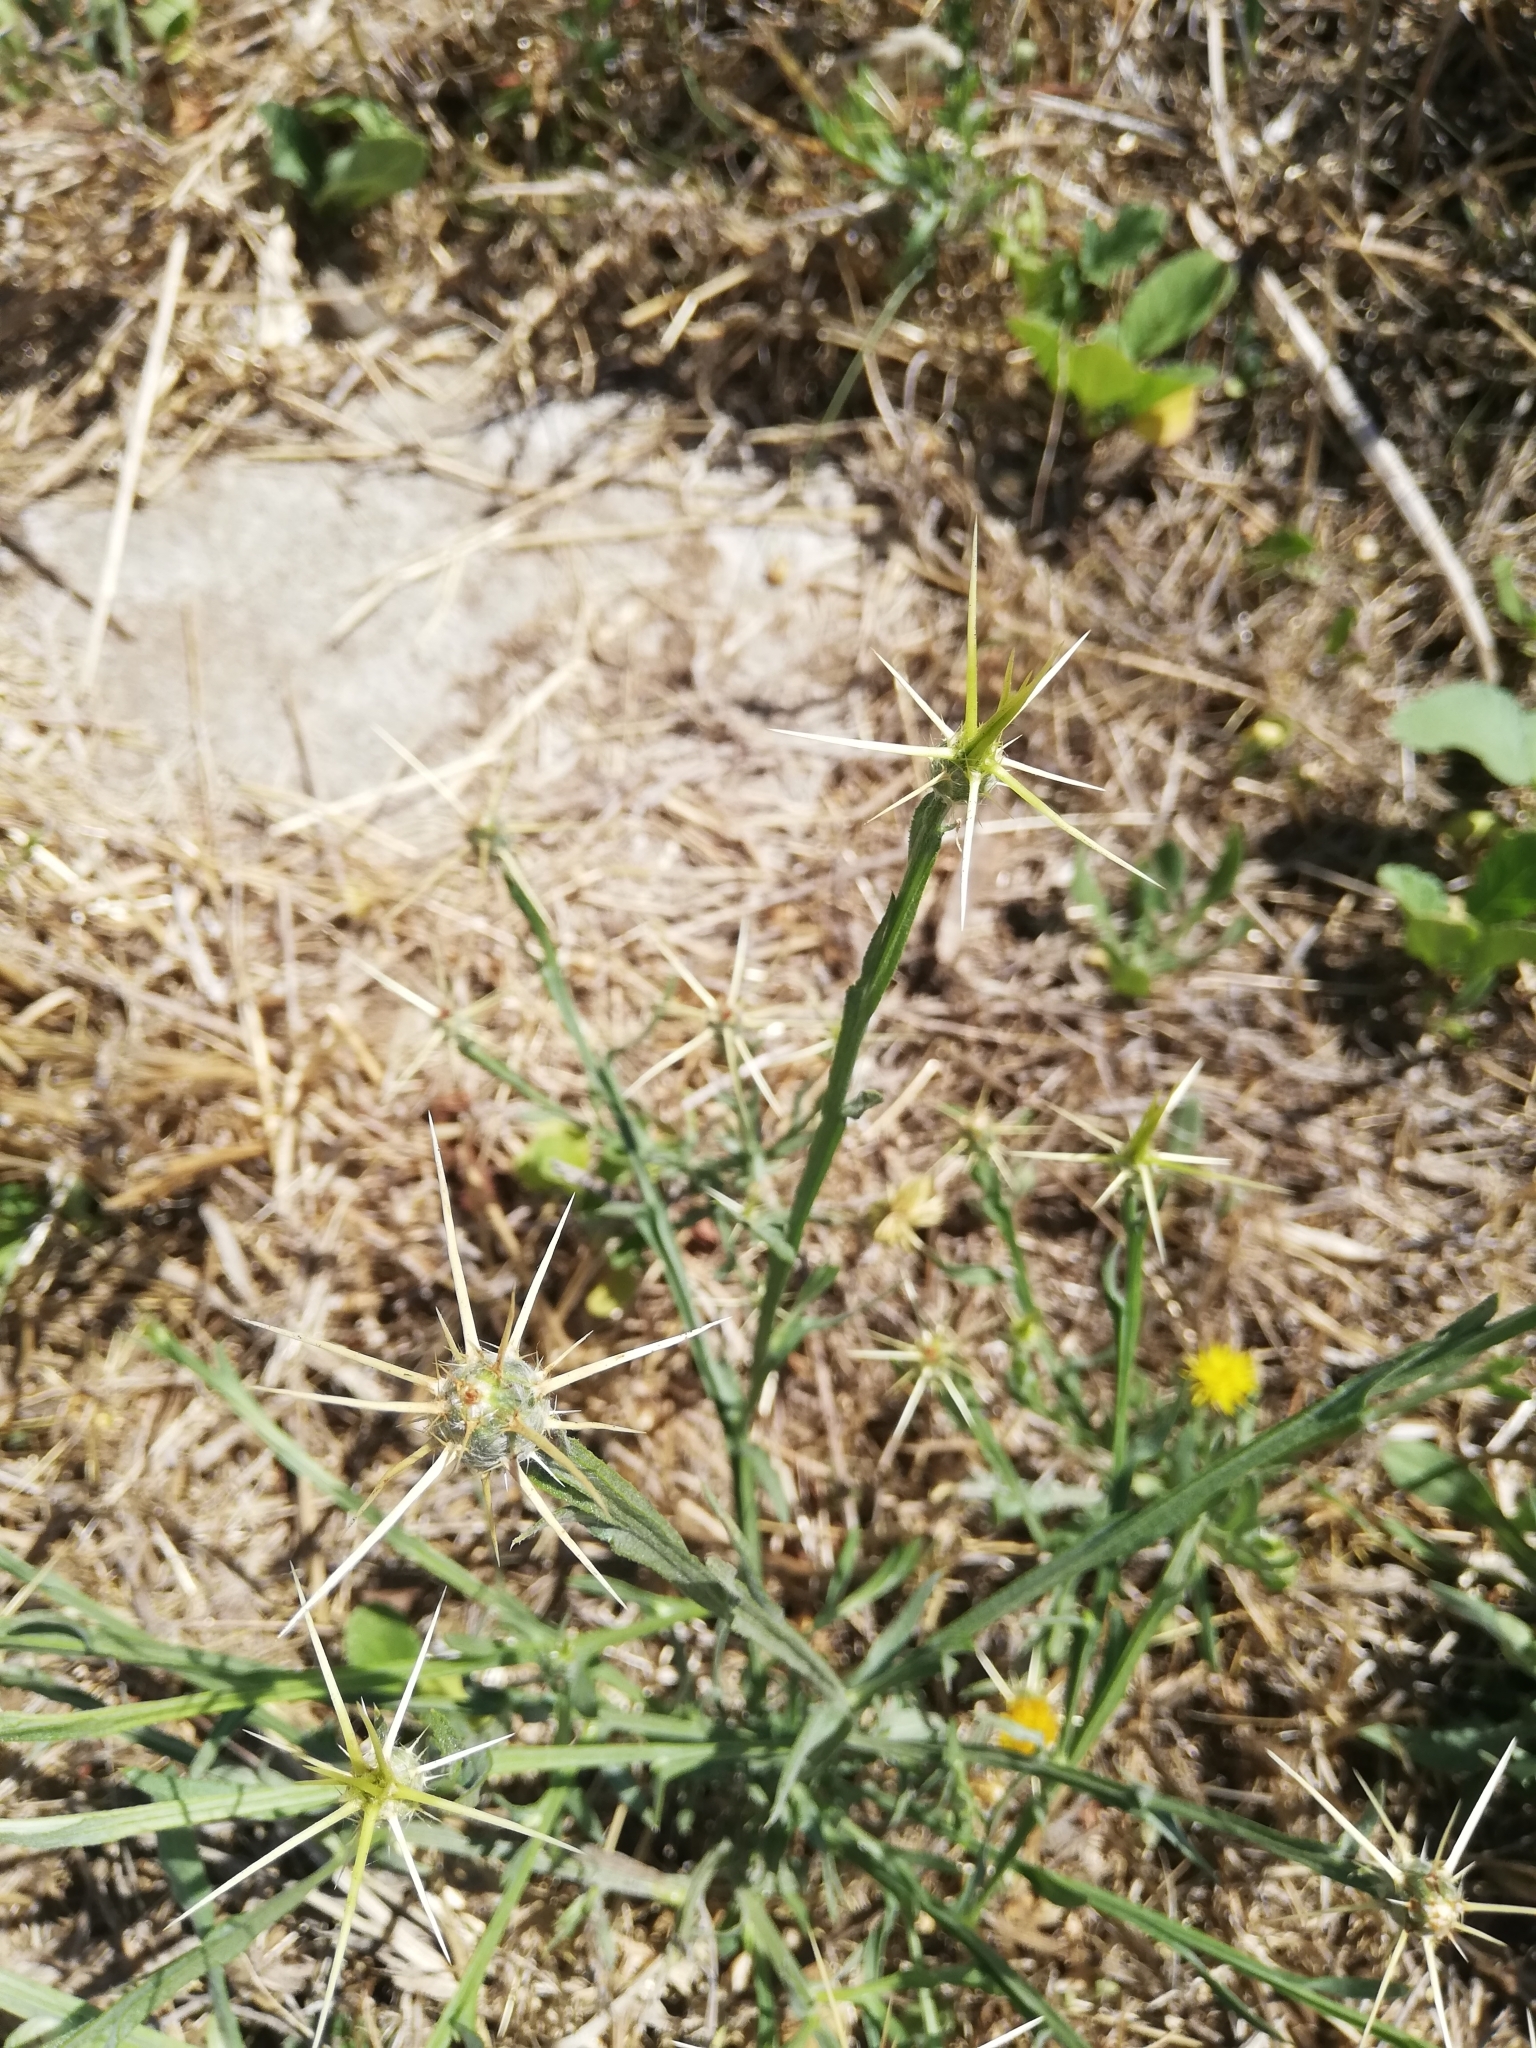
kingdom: Plantae
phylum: Tracheophyta
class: Magnoliopsida
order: Asterales
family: Asteraceae
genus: Centaurea
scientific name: Centaurea solstitialis
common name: Yellow star-thistle
